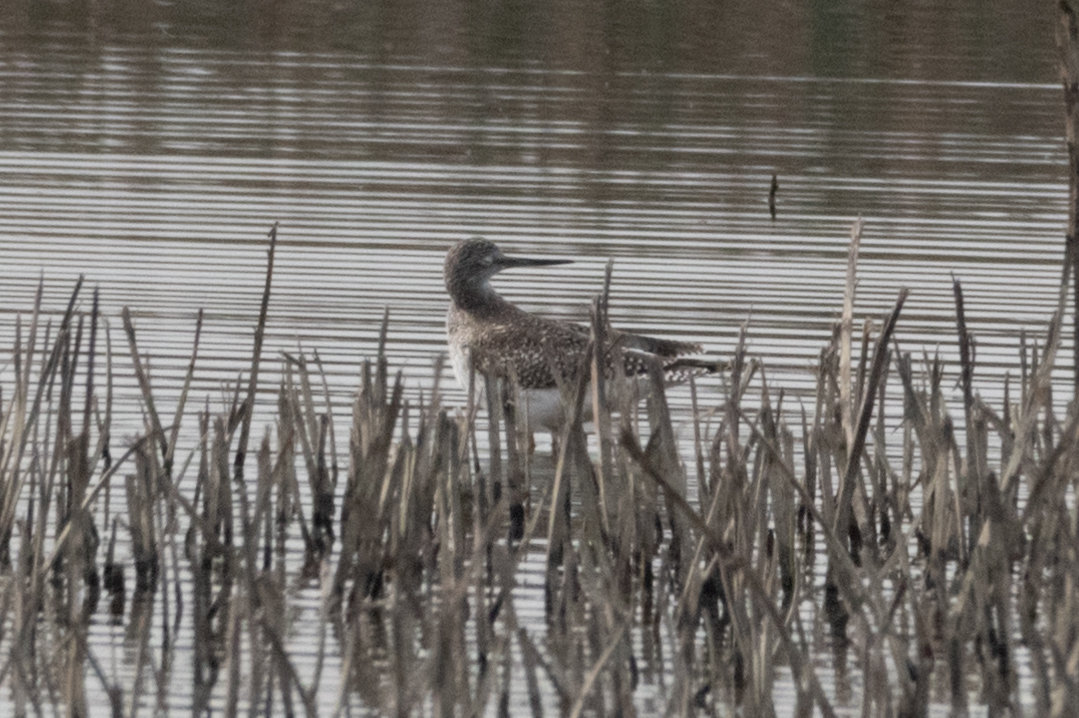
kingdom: Animalia
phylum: Chordata
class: Aves
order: Charadriiformes
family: Scolopacidae
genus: Tringa
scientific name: Tringa melanoleuca
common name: Greater yellowlegs
